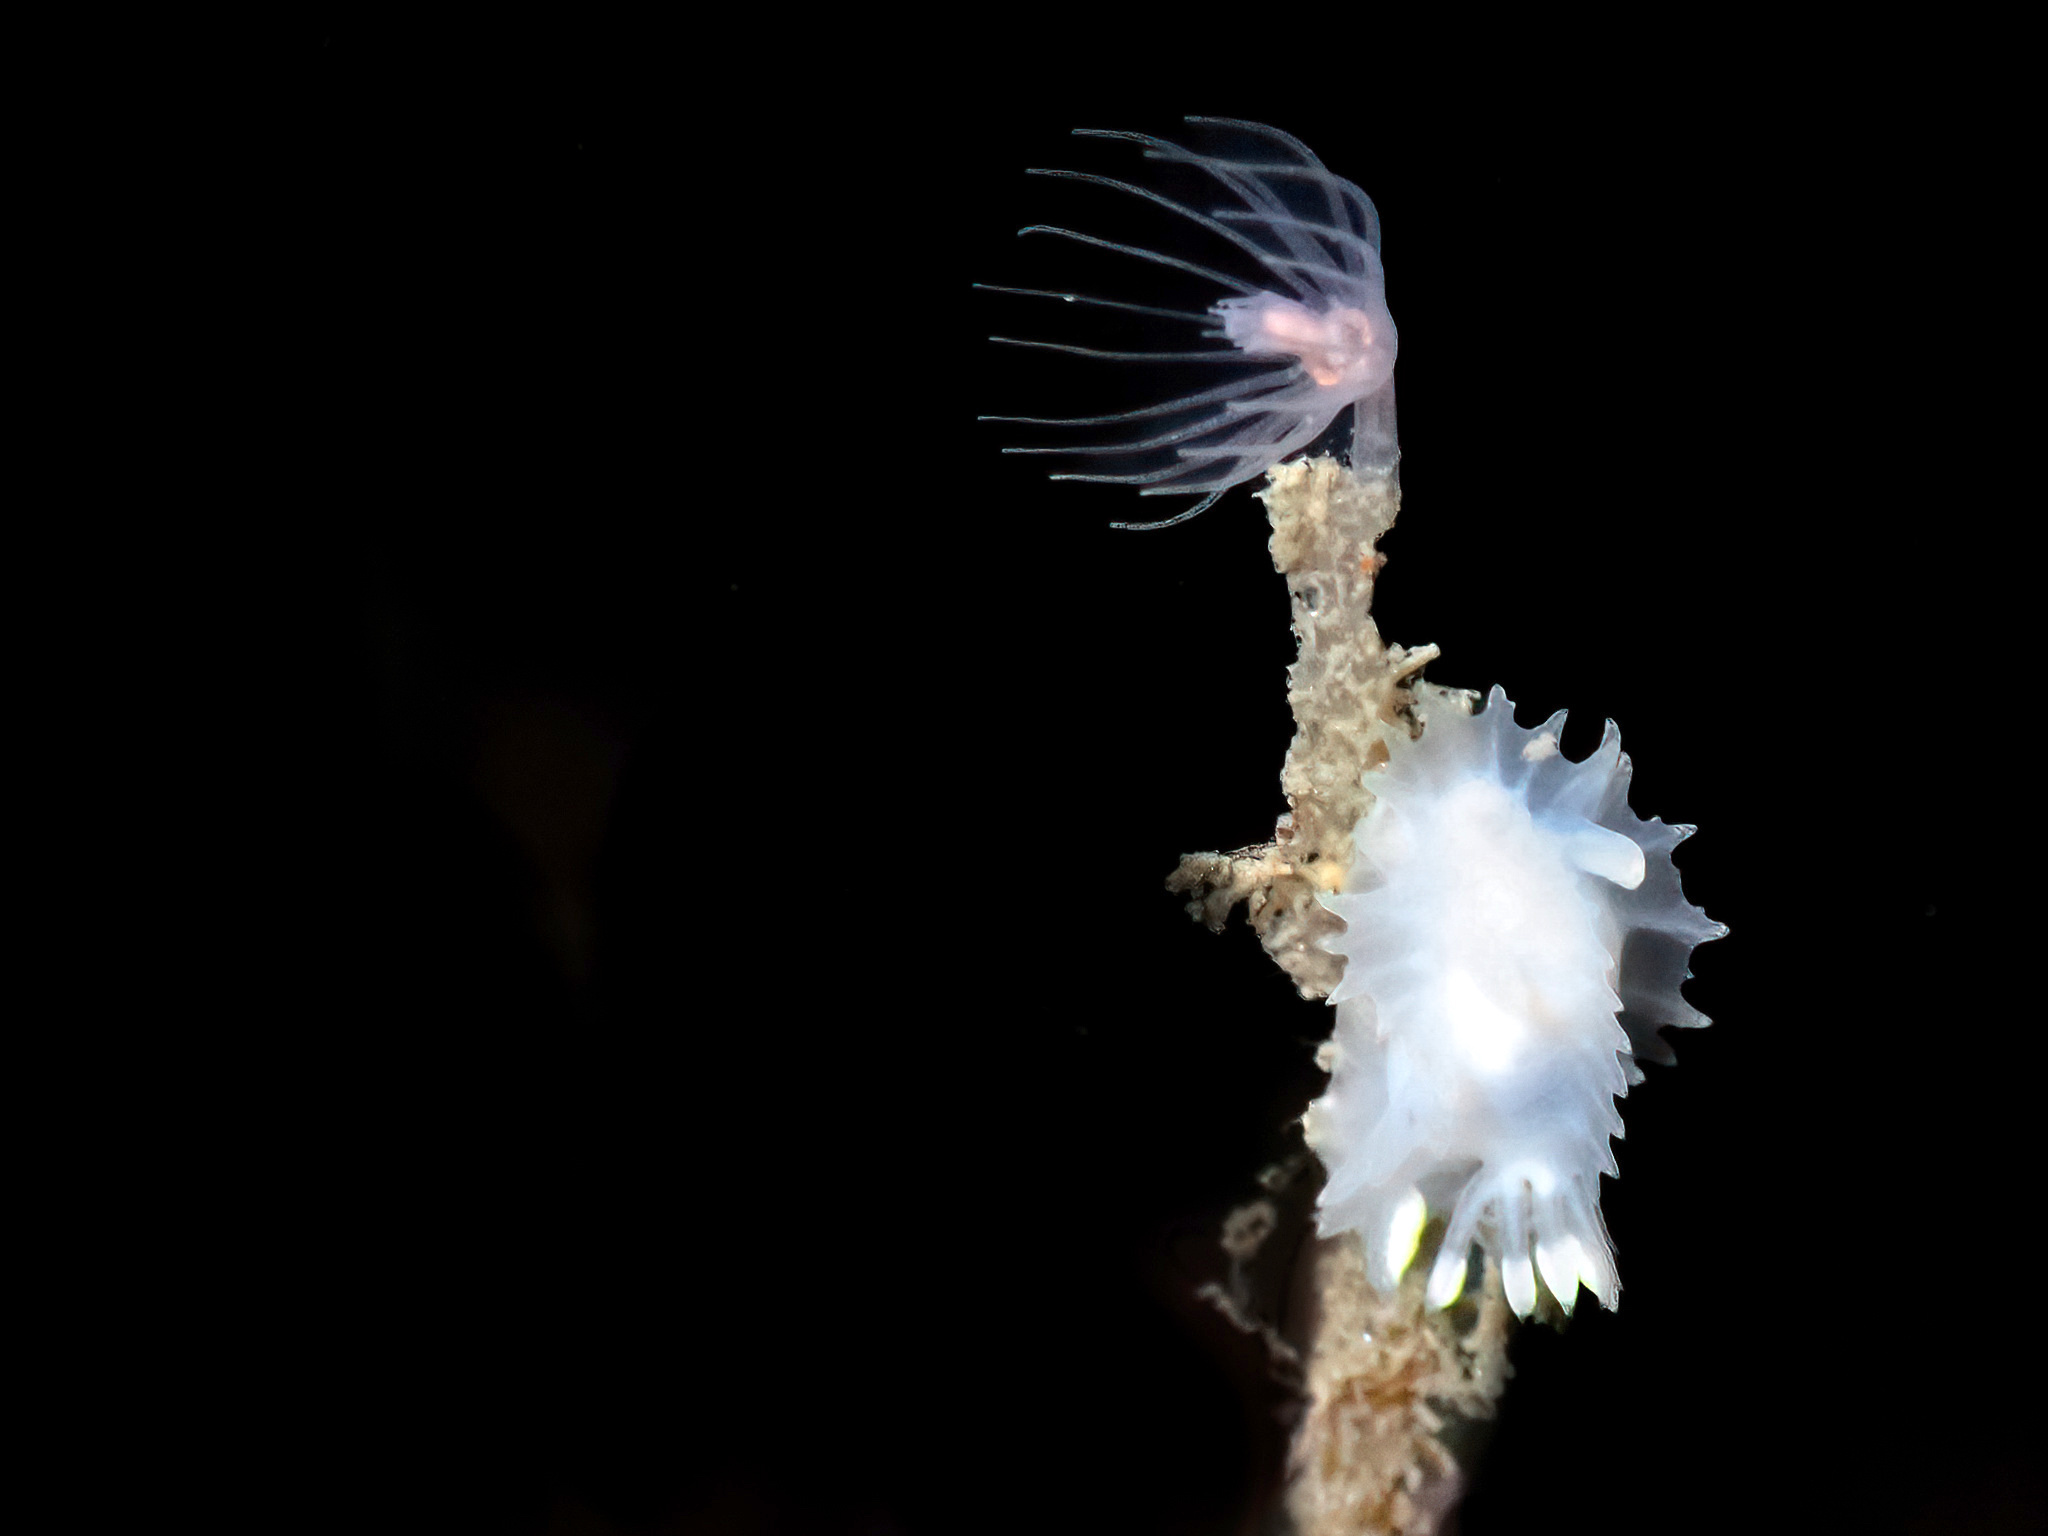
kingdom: Animalia
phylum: Mollusca
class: Gastropoda
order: Nudibranchia
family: Goniodorididae
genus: Lophodoris
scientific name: Lophodoris danielsseni
